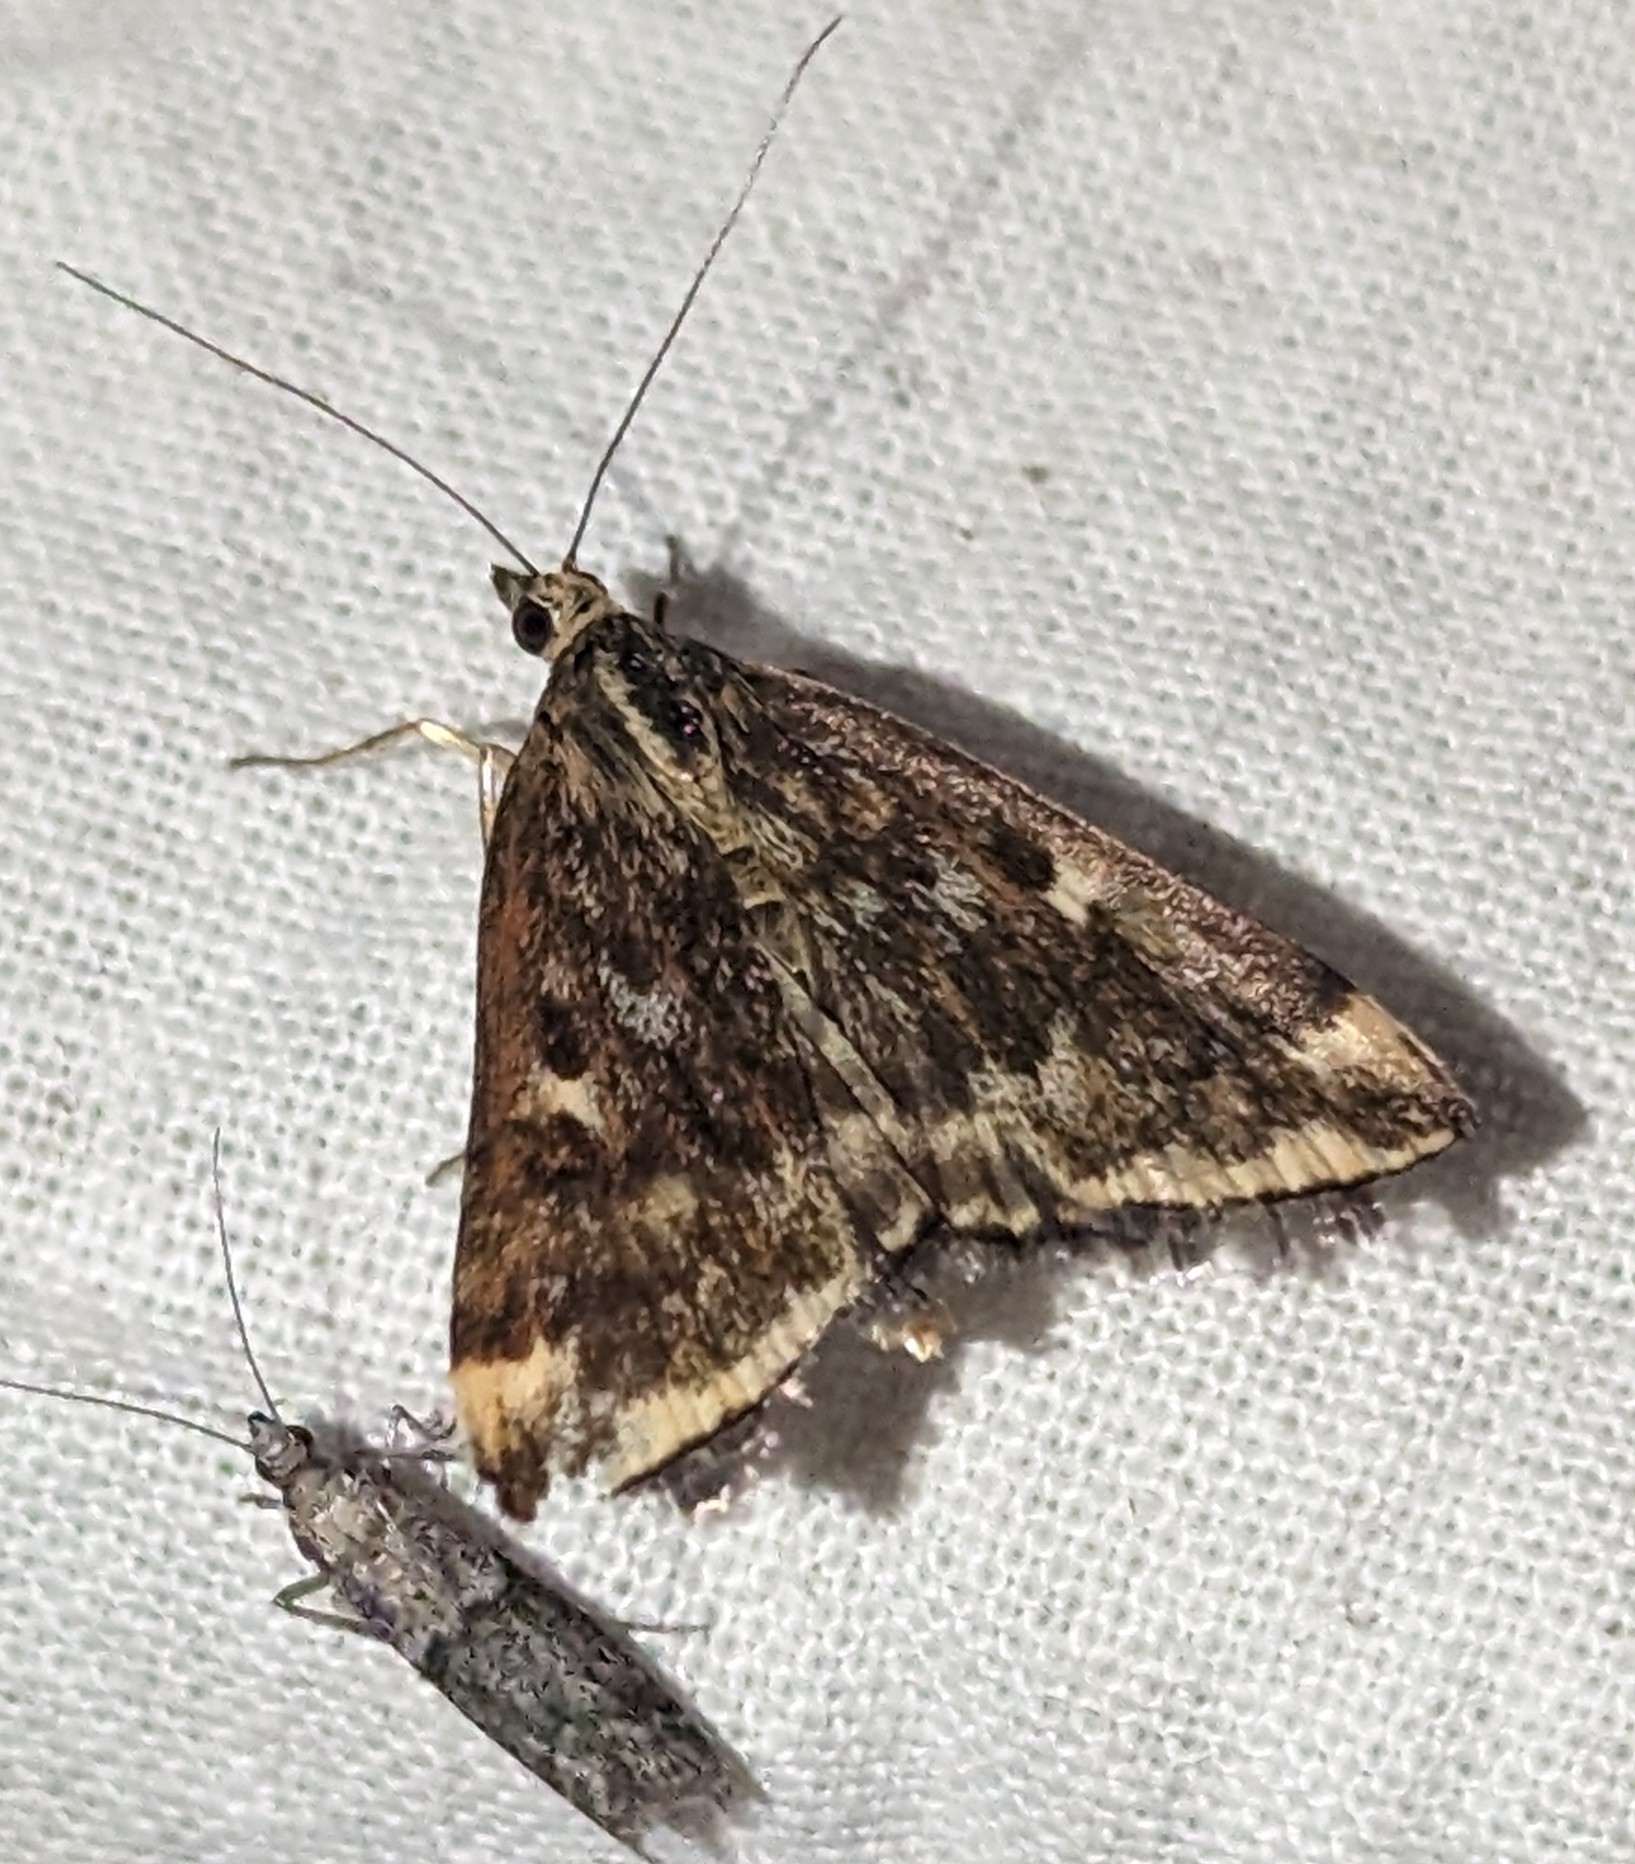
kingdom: Animalia
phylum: Arthropoda
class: Insecta
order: Lepidoptera
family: Crambidae
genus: Loxostege
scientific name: Loxostege
